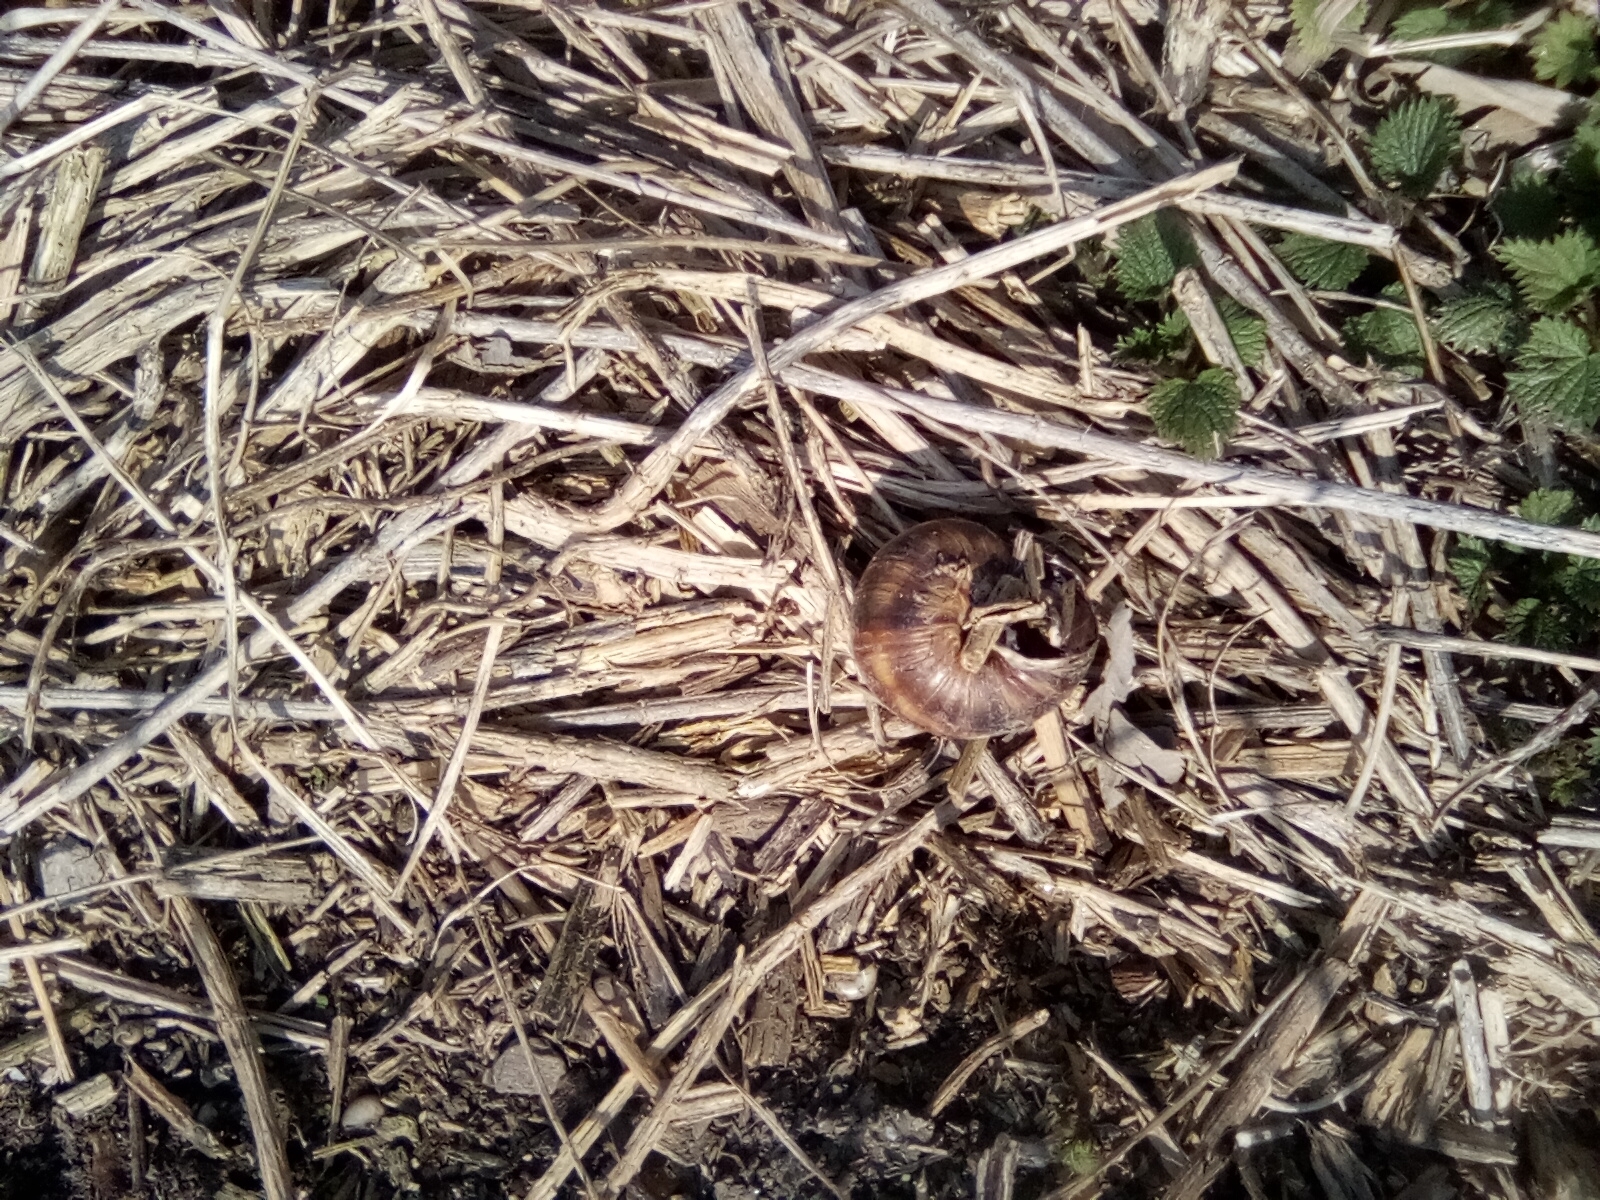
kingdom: Animalia
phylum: Mollusca
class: Gastropoda
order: Stylommatophora
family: Helicidae
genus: Helix
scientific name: Helix lucorum
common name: Turkish snail
